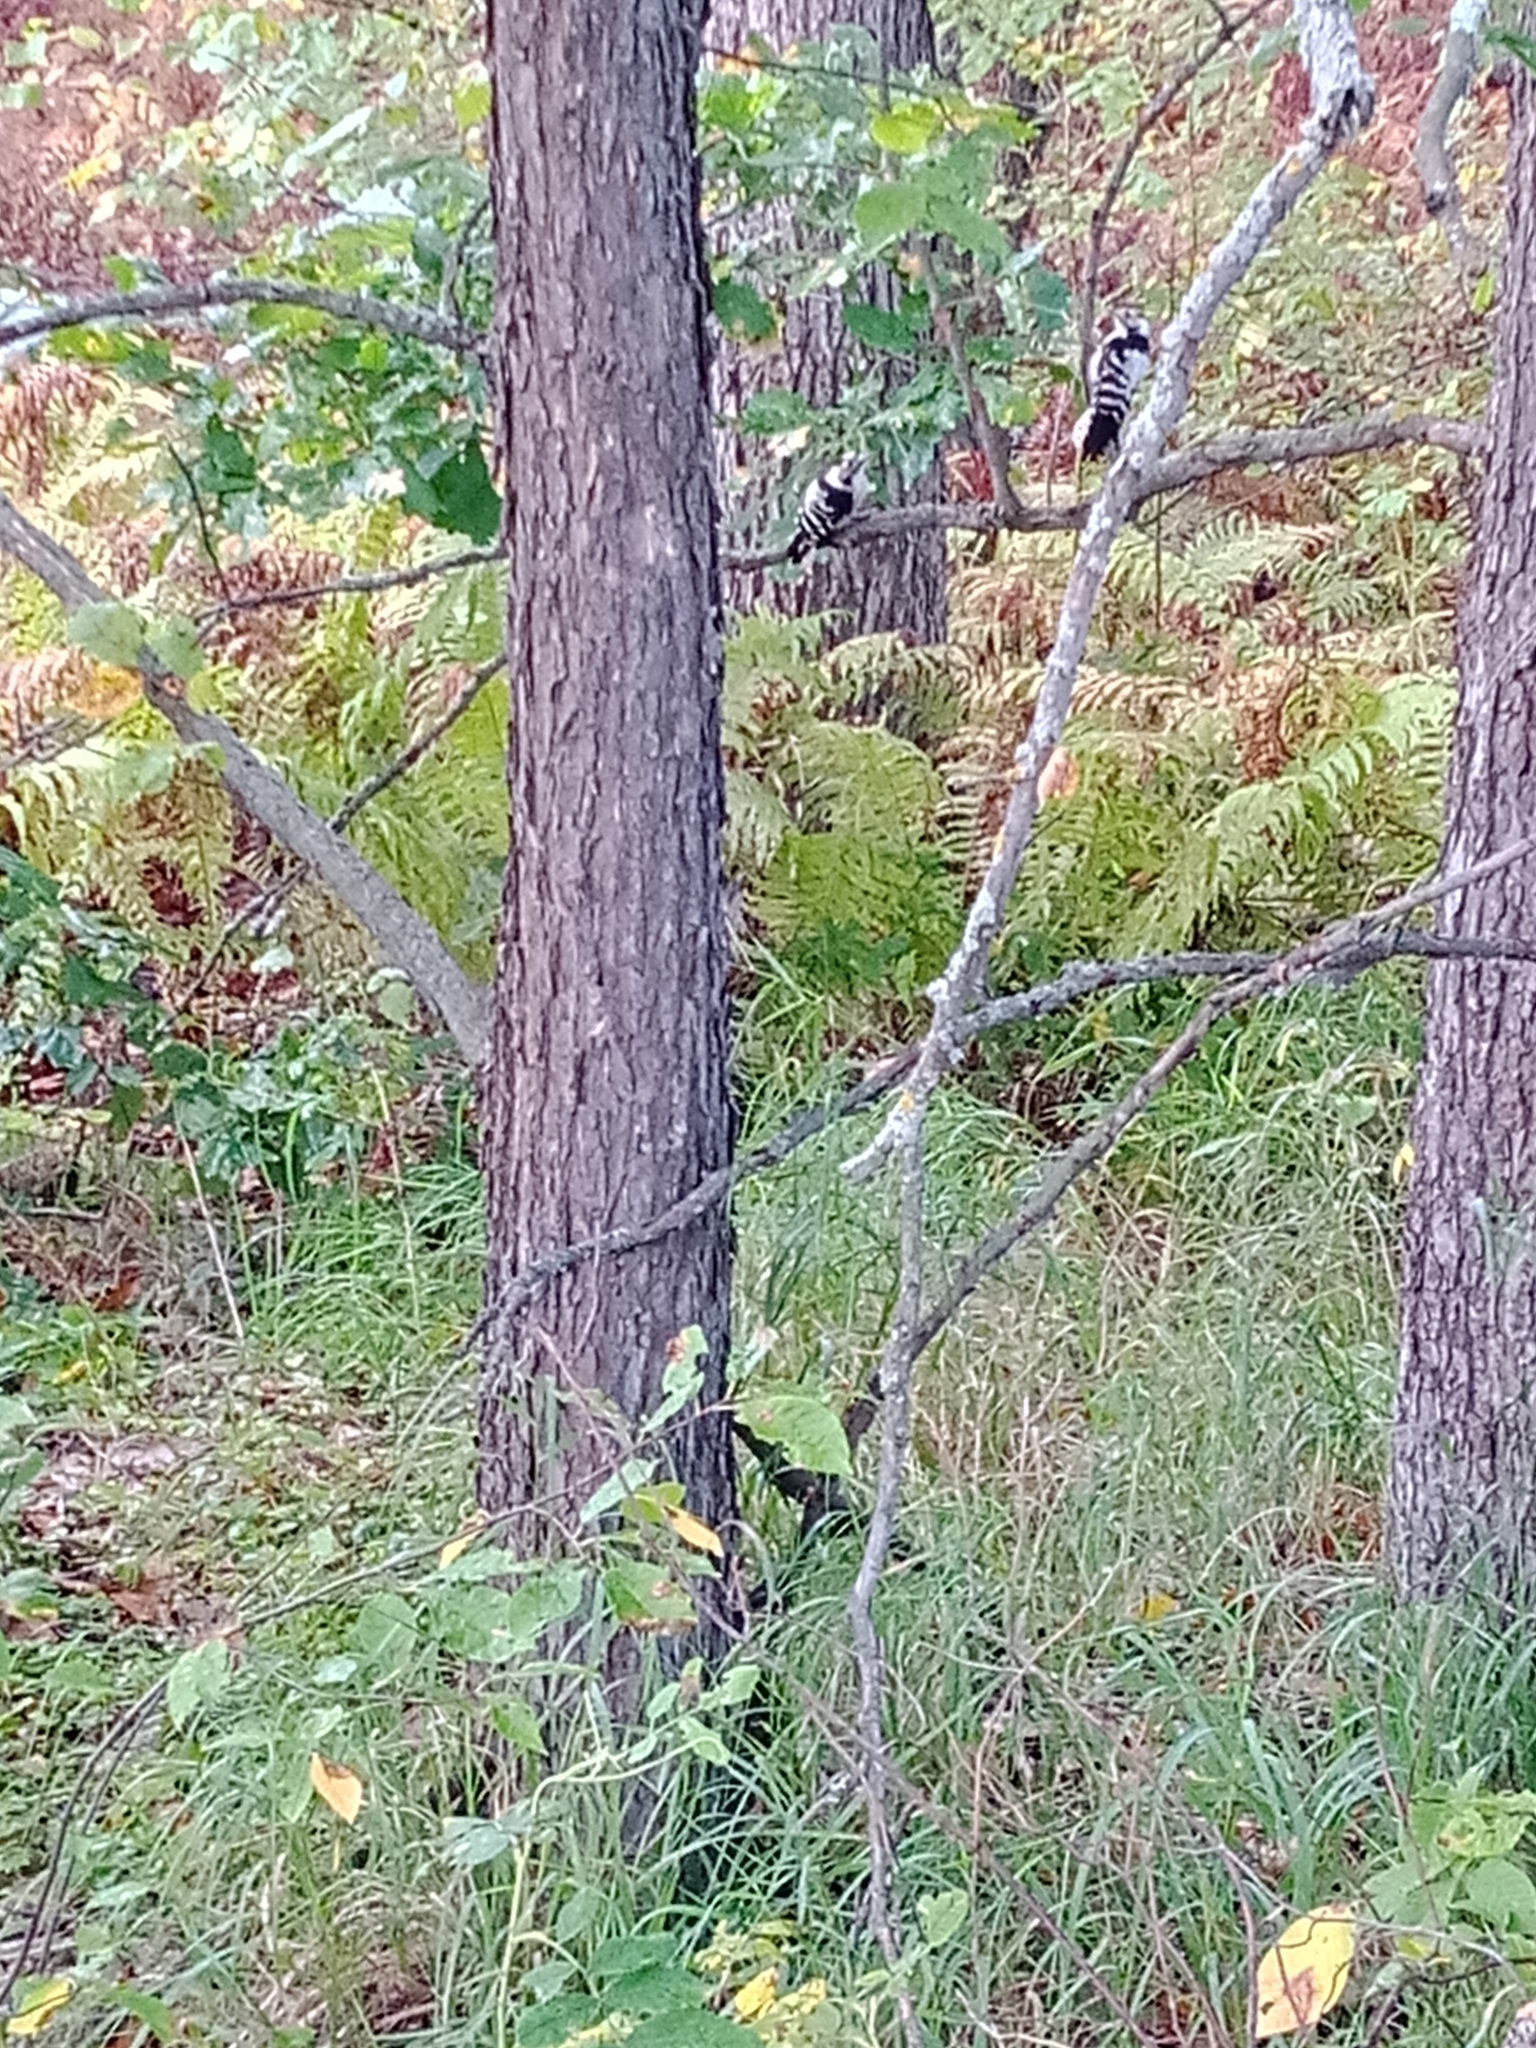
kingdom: Animalia
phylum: Chordata
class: Aves
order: Piciformes
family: Picidae
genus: Dryobates
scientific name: Dryobates minor
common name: Lesser spotted woodpecker
